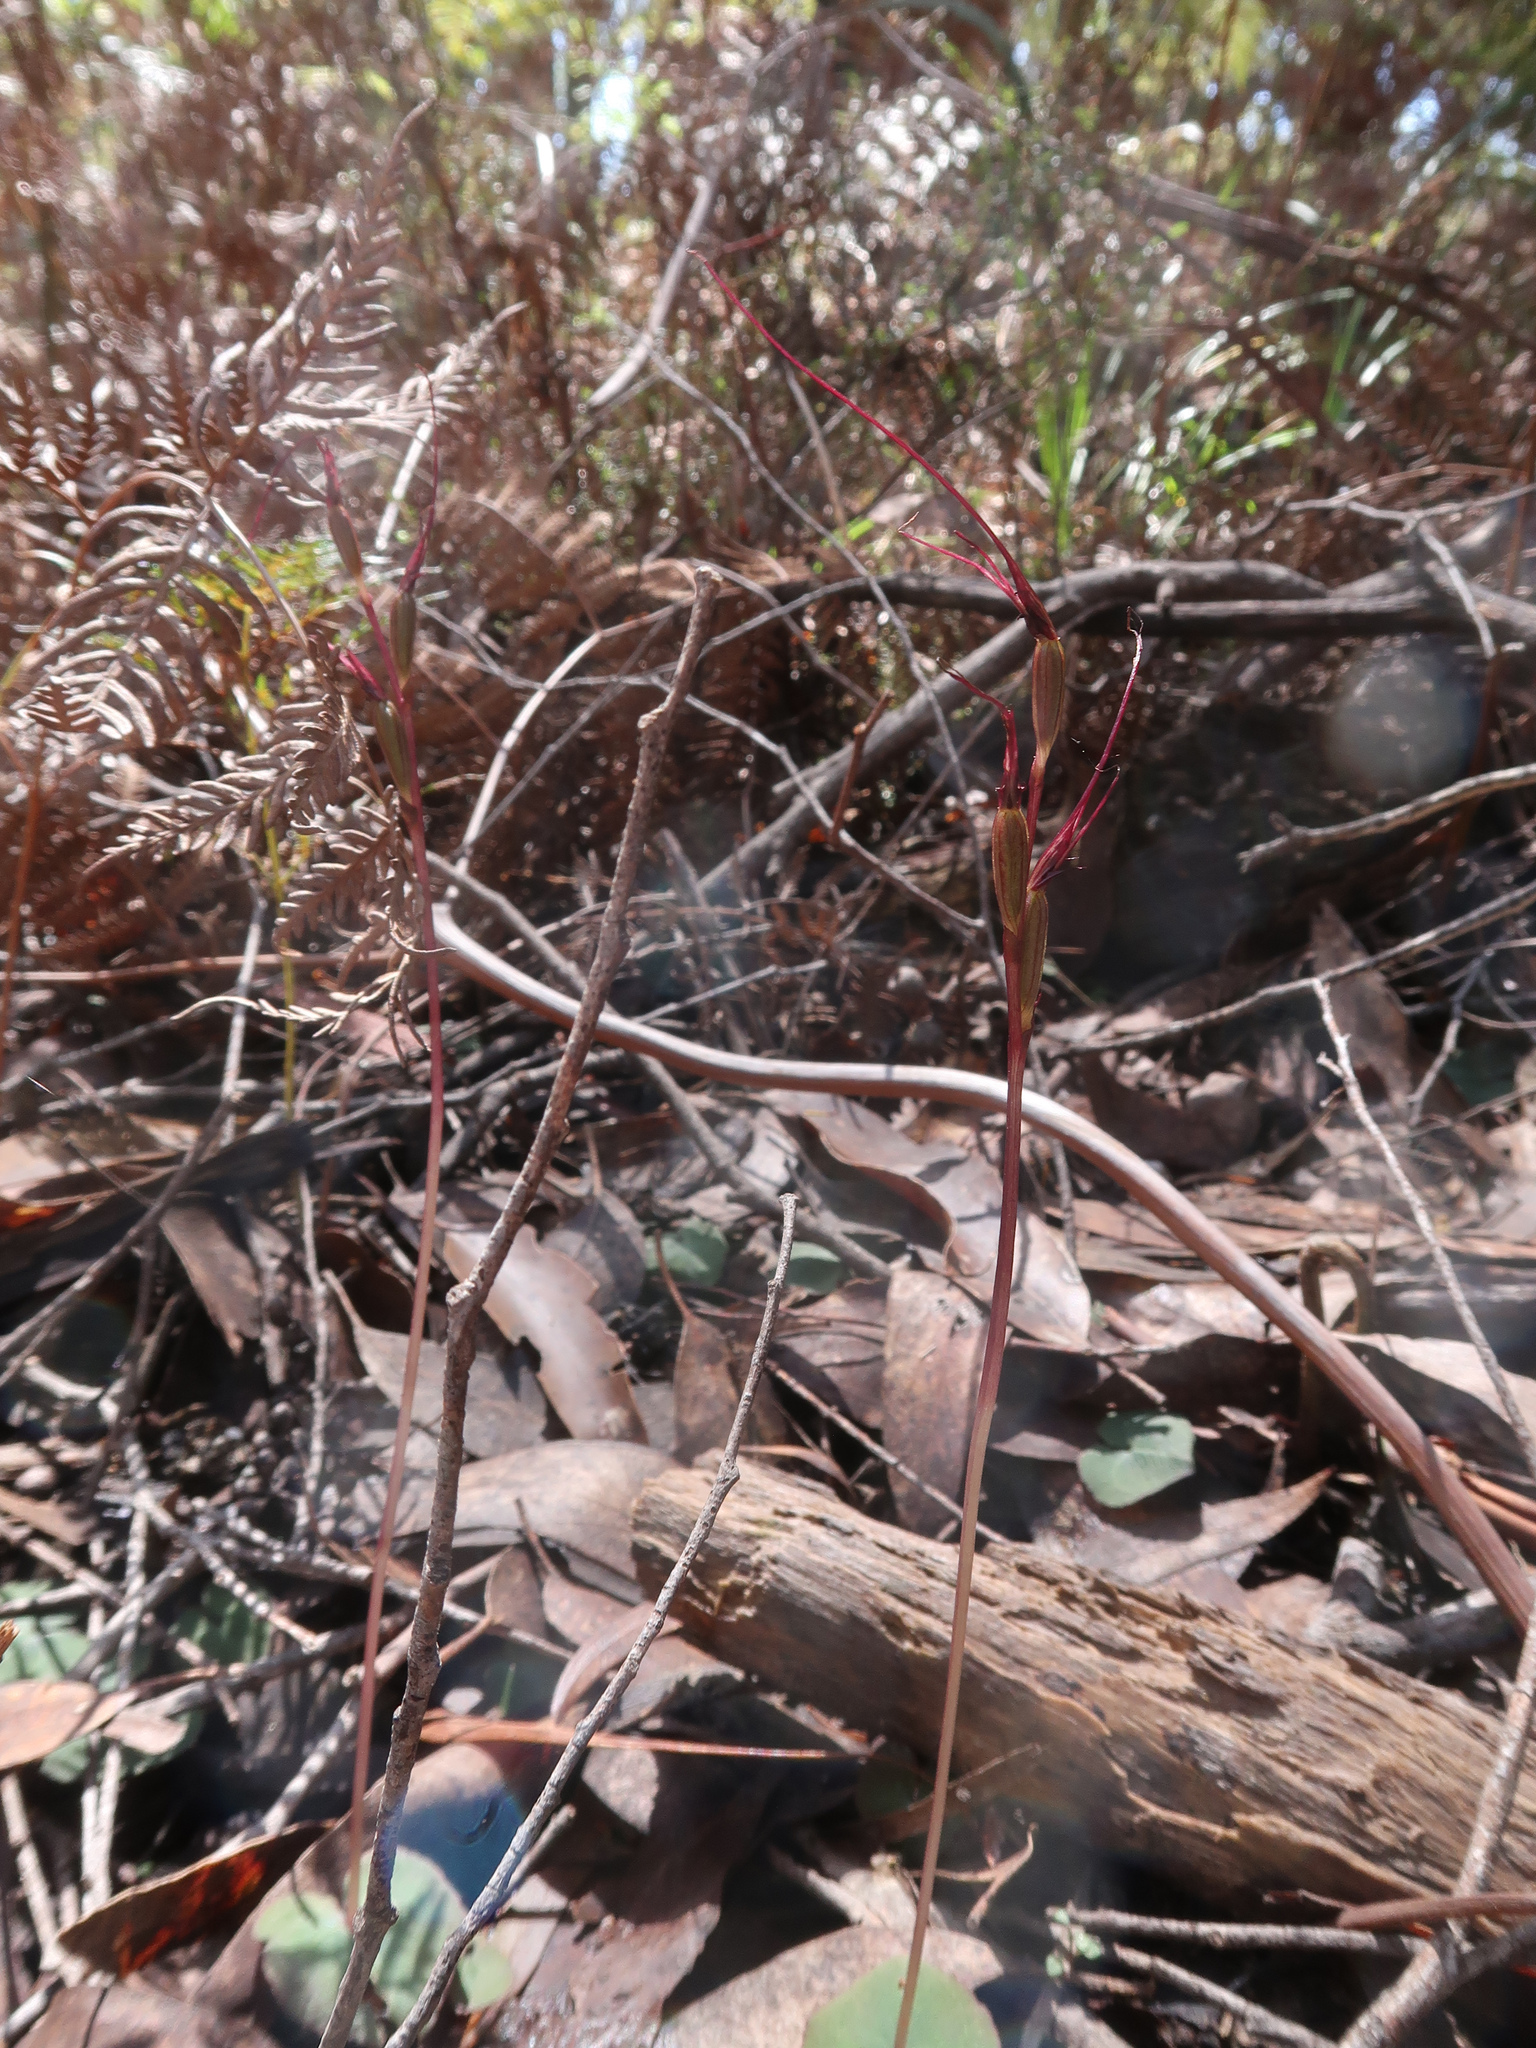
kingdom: Plantae
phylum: Tracheophyta
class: Liliopsida
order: Asparagales
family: Orchidaceae
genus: Acianthus
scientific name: Acianthus caudatus
